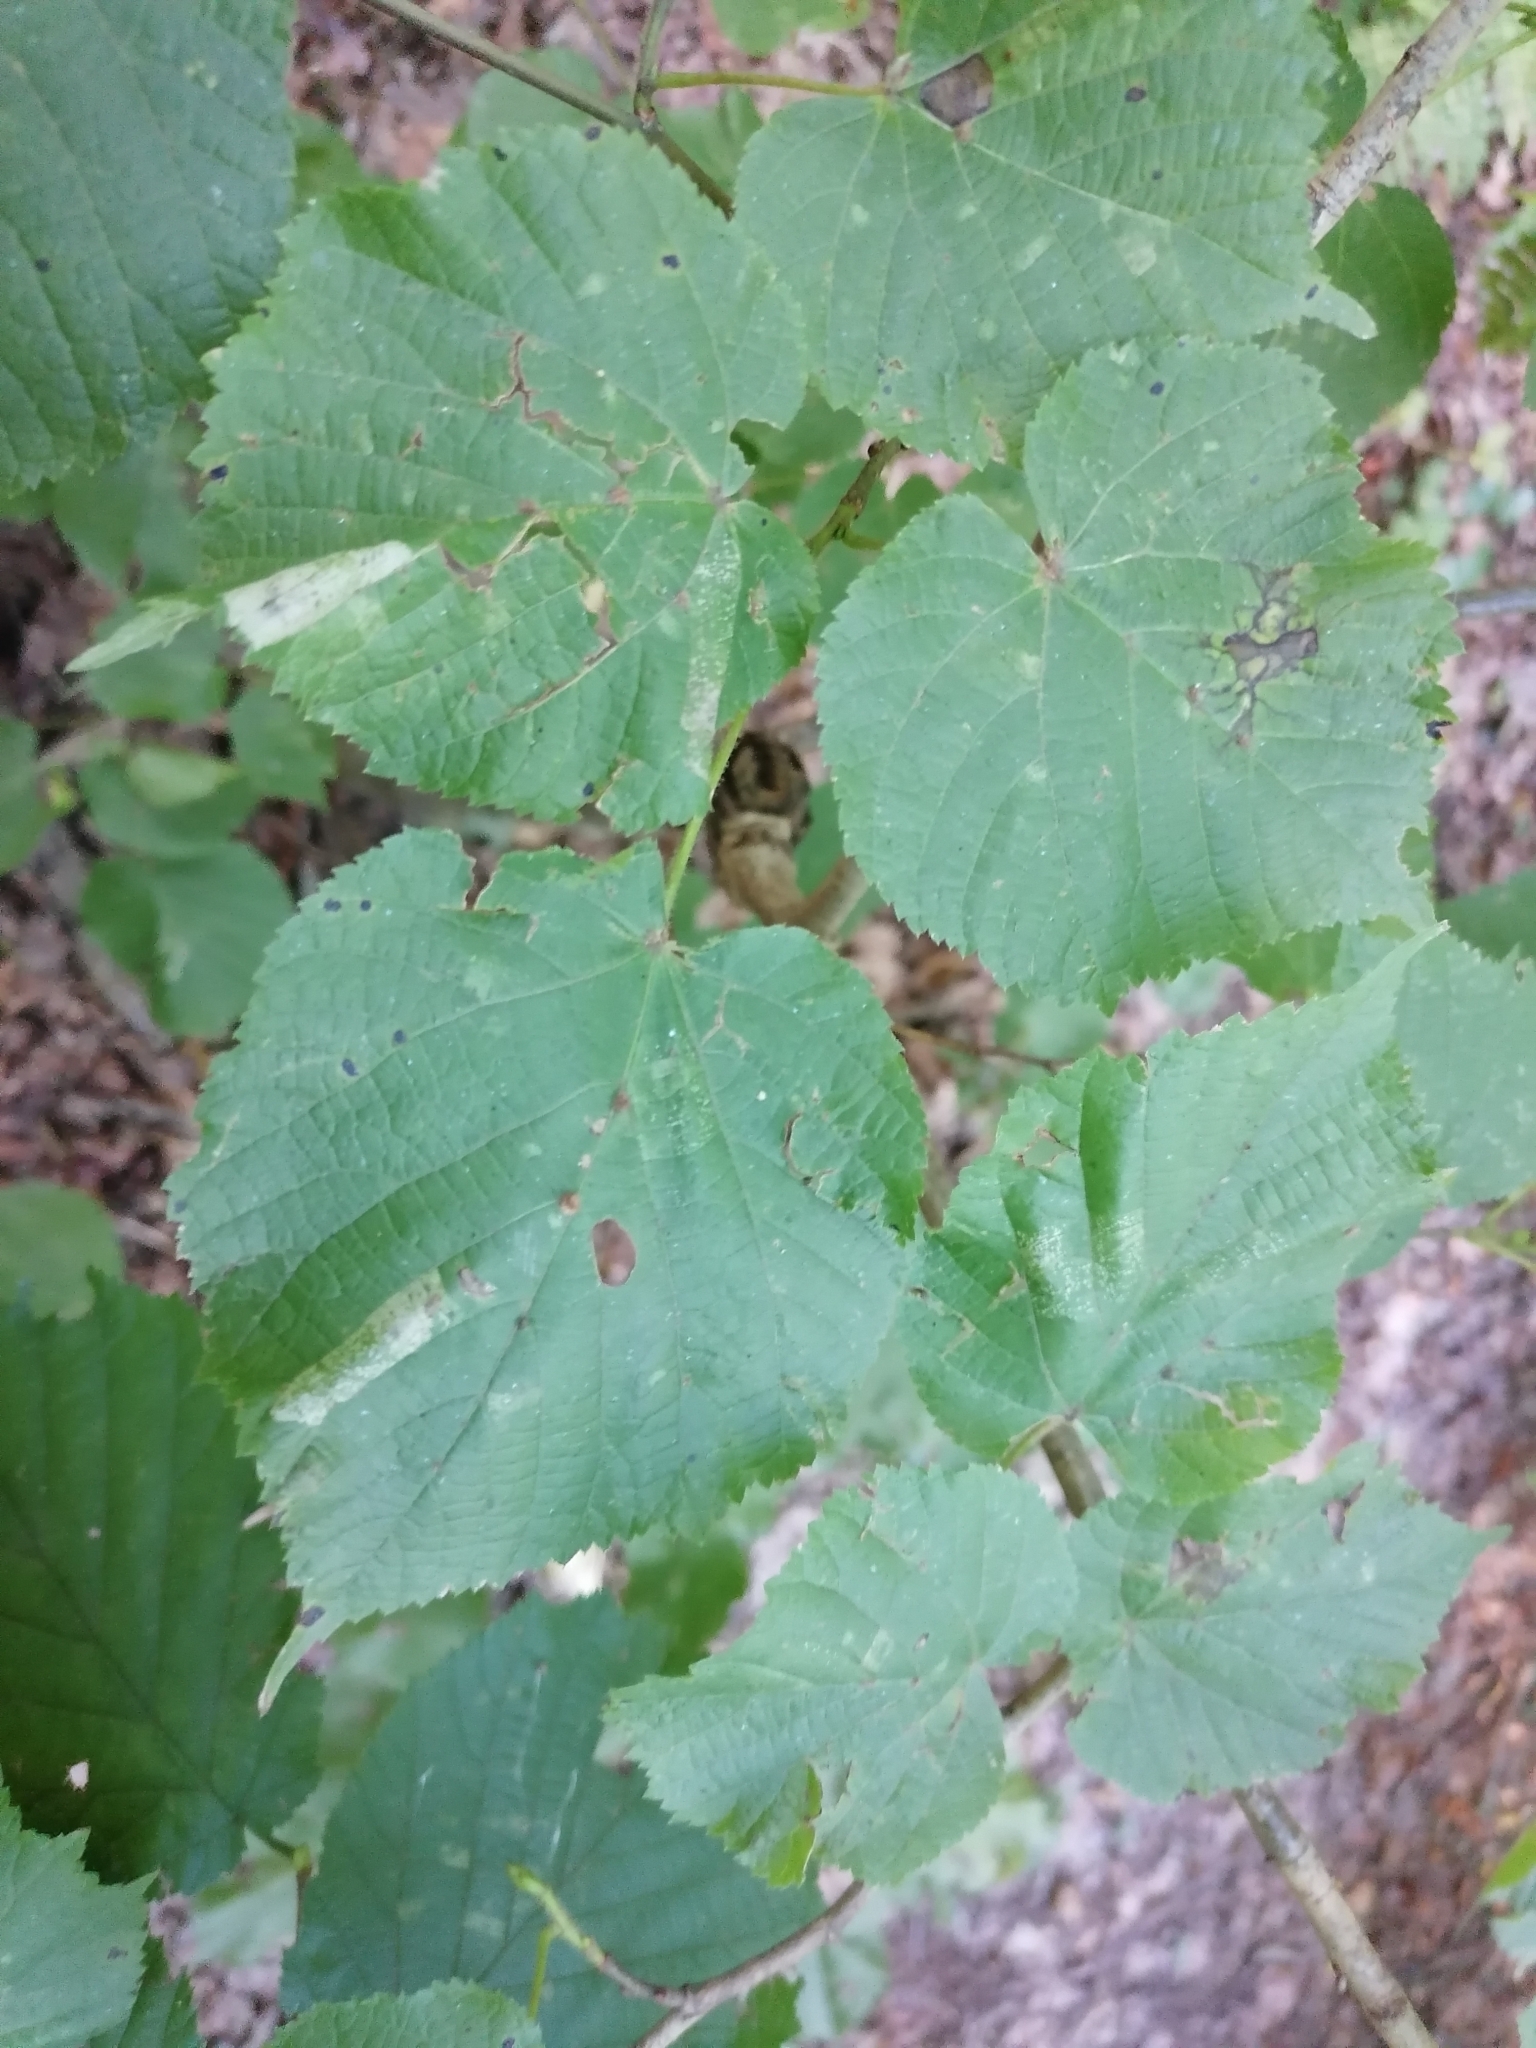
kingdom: Animalia
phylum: Arthropoda
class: Insecta
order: Lepidoptera
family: Gracillariidae
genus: Phyllonorycter
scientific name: Phyllonorycter issikii
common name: Linden midget
